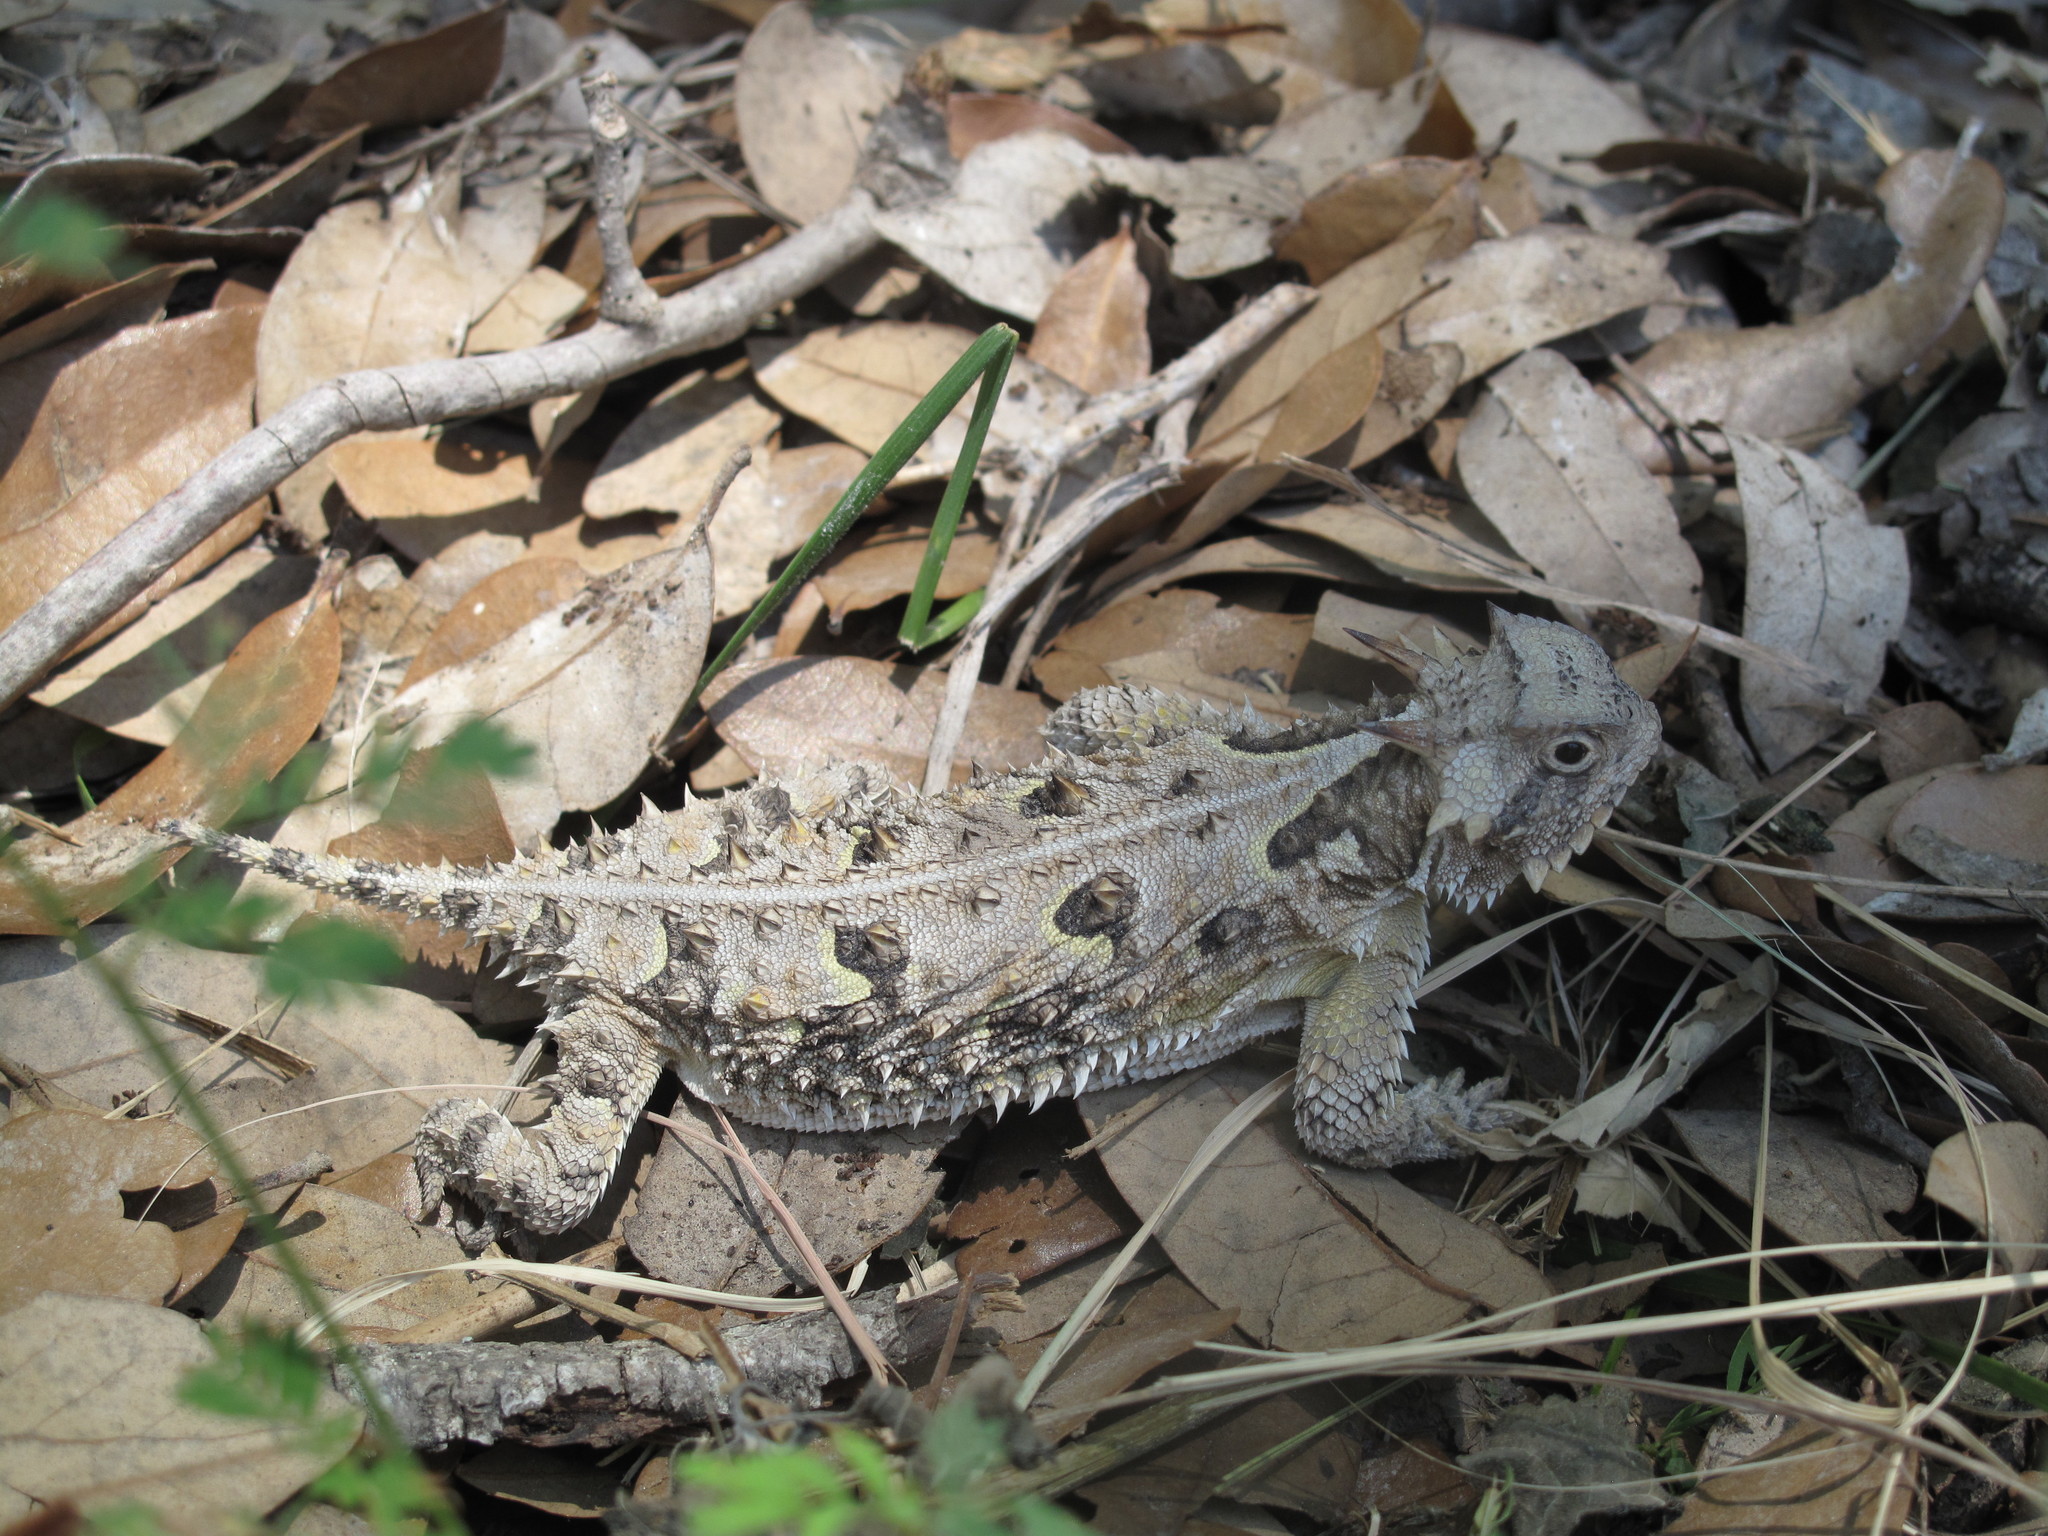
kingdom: Animalia
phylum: Chordata
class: Squamata
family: Phrynosomatidae
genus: Phrynosoma
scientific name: Phrynosoma cornutum
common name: Texas horned lizard
